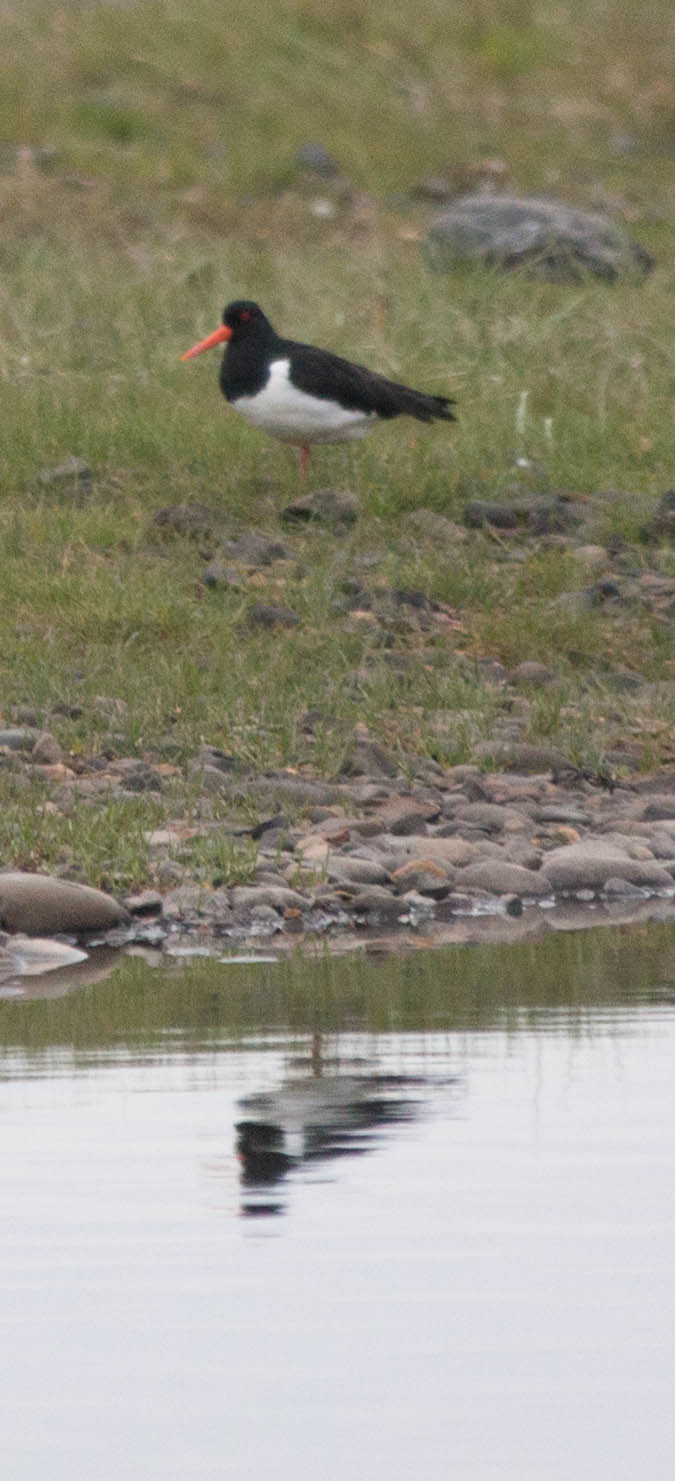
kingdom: Animalia
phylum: Chordata
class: Aves
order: Charadriiformes
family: Haematopodidae
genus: Haematopus
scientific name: Haematopus ostralegus
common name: Eurasian oystercatcher
